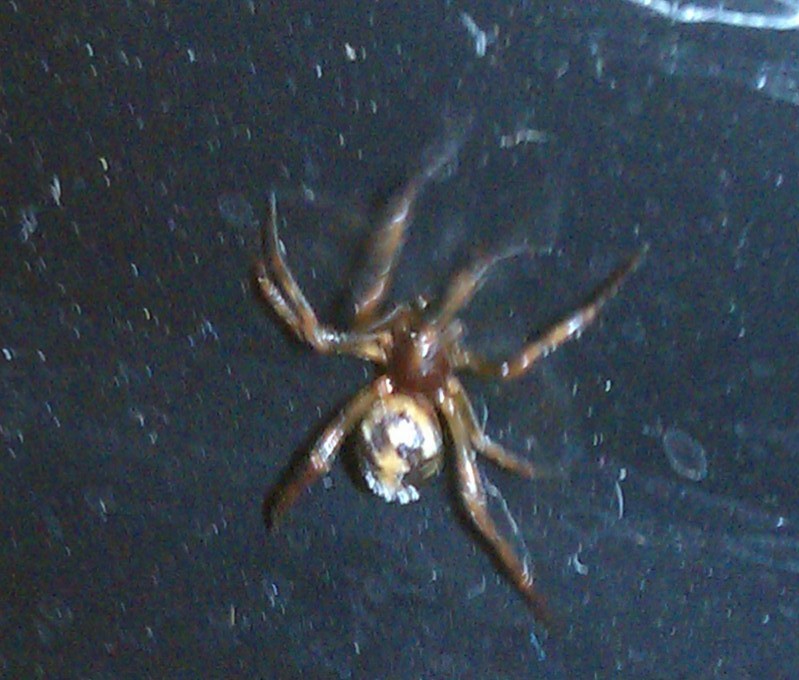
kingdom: Animalia
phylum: Arthropoda
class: Arachnida
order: Araneae
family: Theridiidae
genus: Steatoda
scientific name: Steatoda triangulosa
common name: Triangulate bud spider
